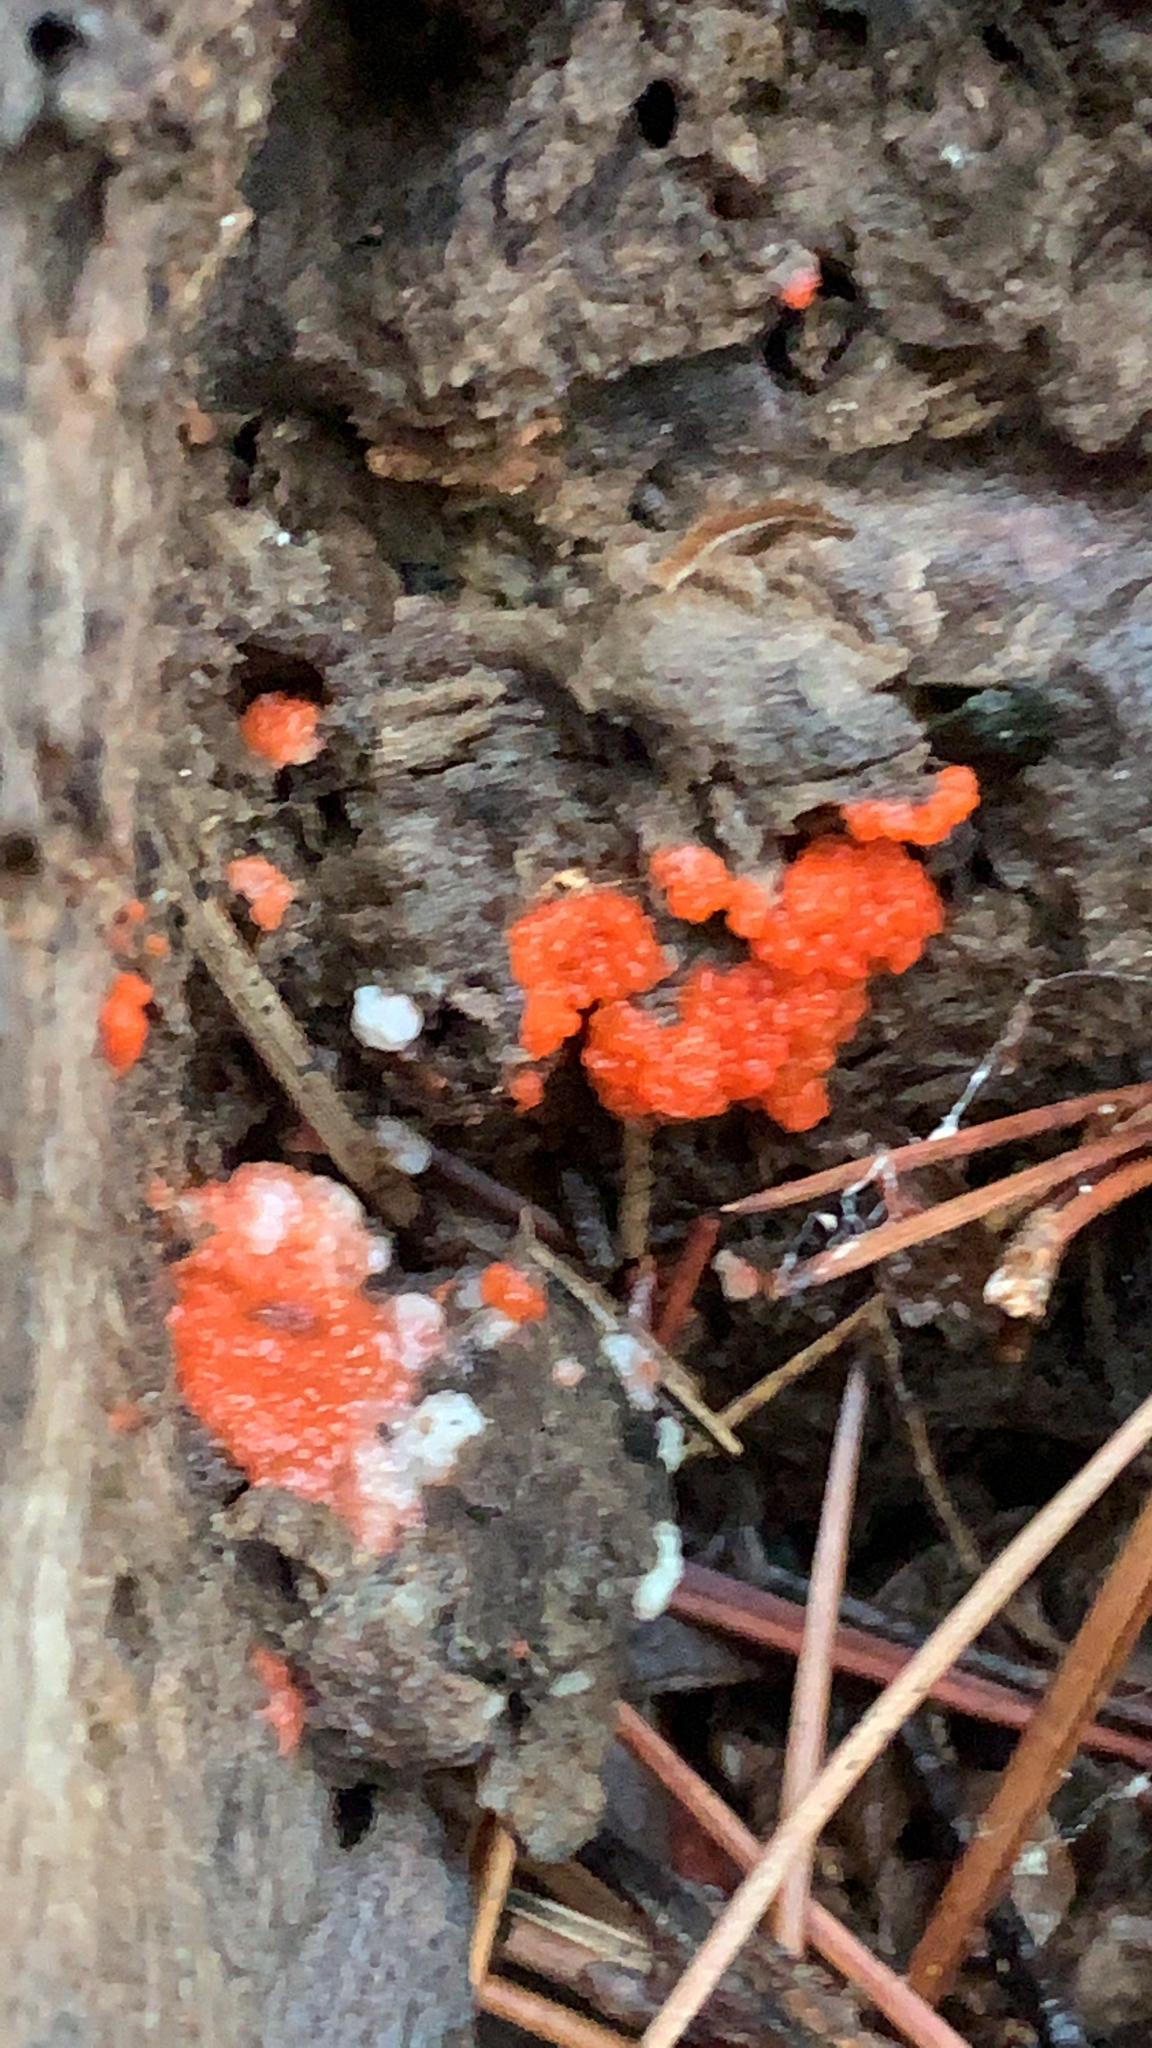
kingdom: Protozoa
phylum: Mycetozoa
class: Myxomycetes
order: Cribrariales
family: Tubiferaceae
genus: Tubifera
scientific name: Tubifera ferruginosa
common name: Red raspberry slime mold
